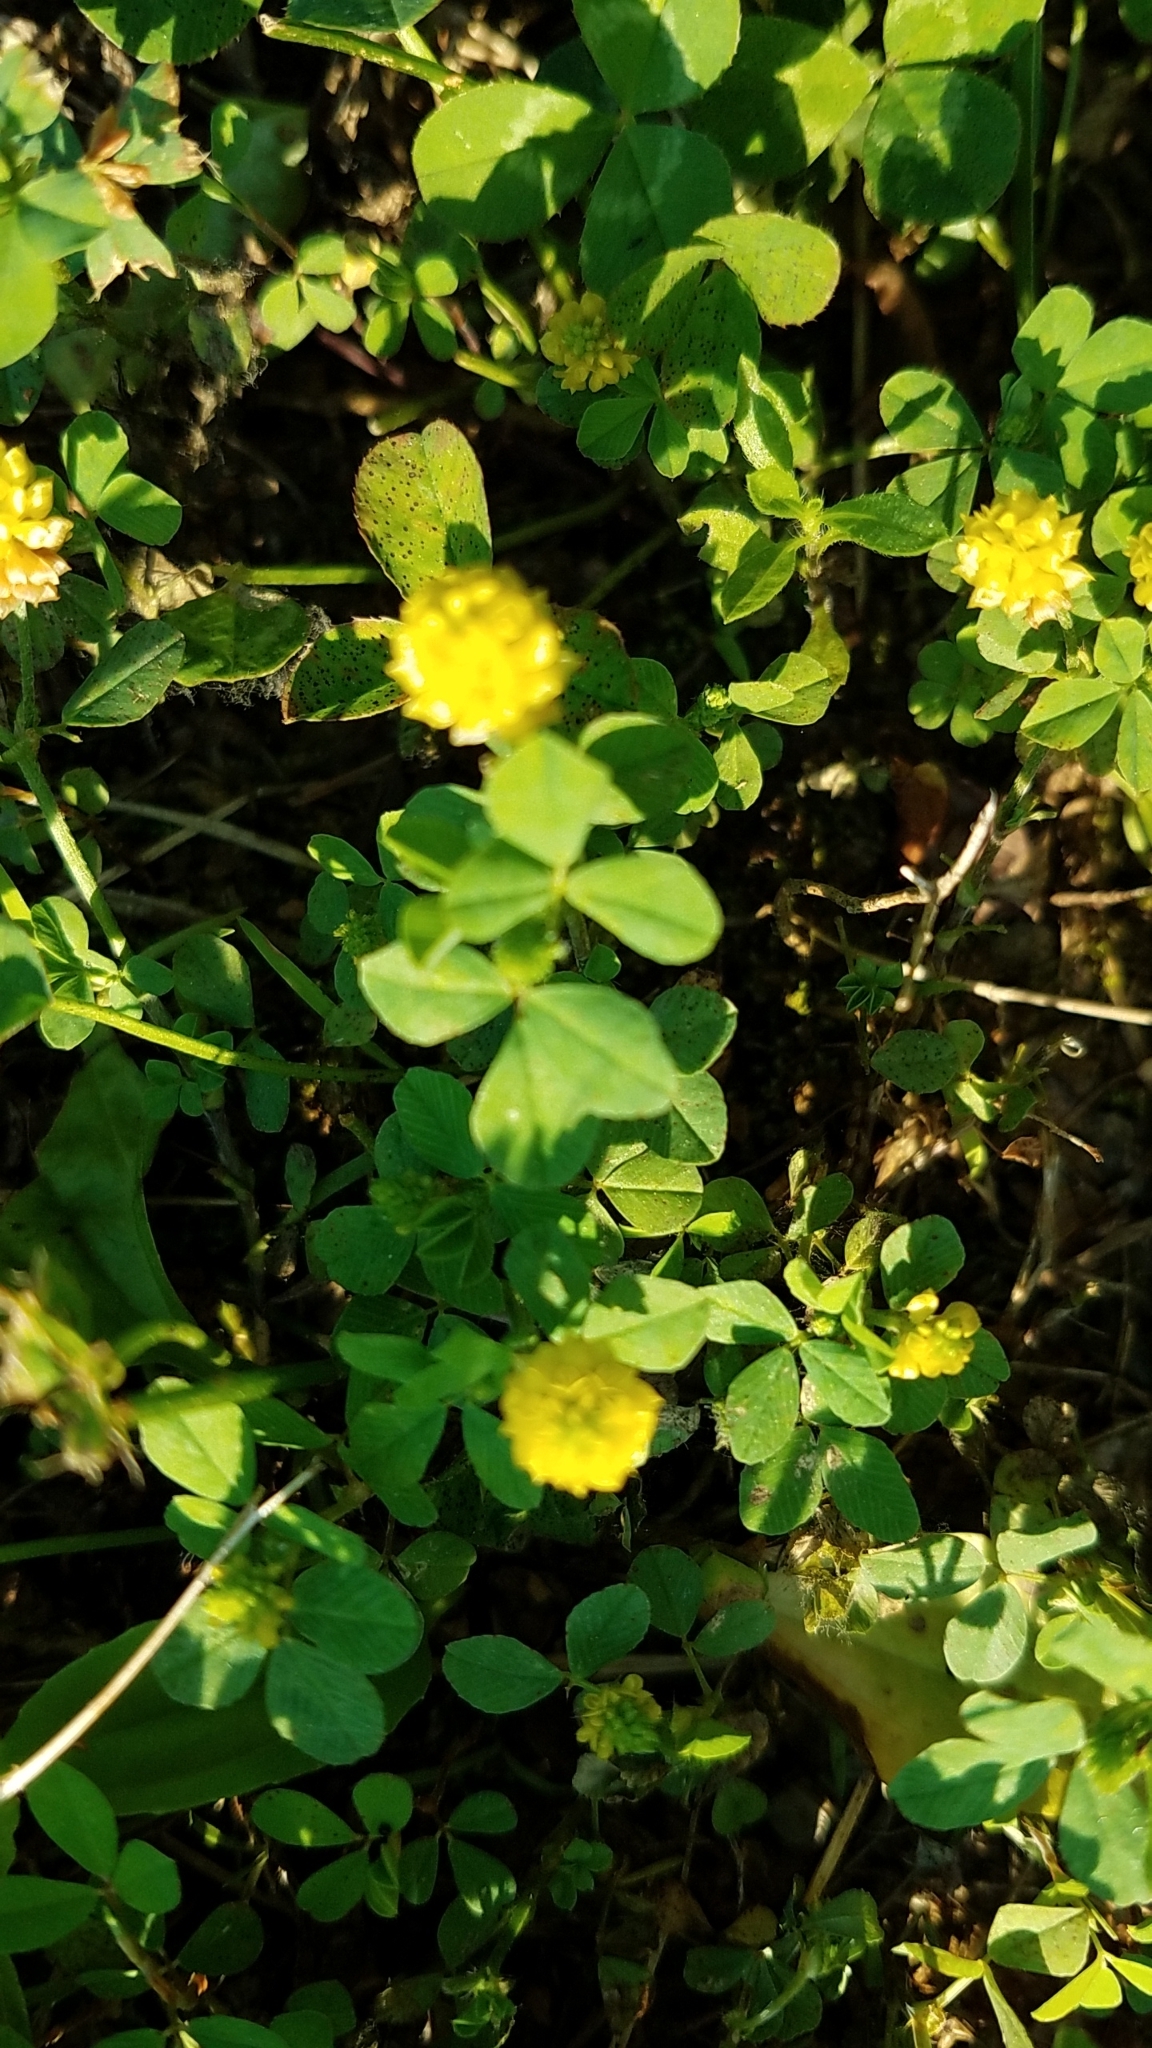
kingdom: Plantae
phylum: Tracheophyta
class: Magnoliopsida
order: Fabales
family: Fabaceae
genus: Trifolium
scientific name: Trifolium campestre
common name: Field clover
